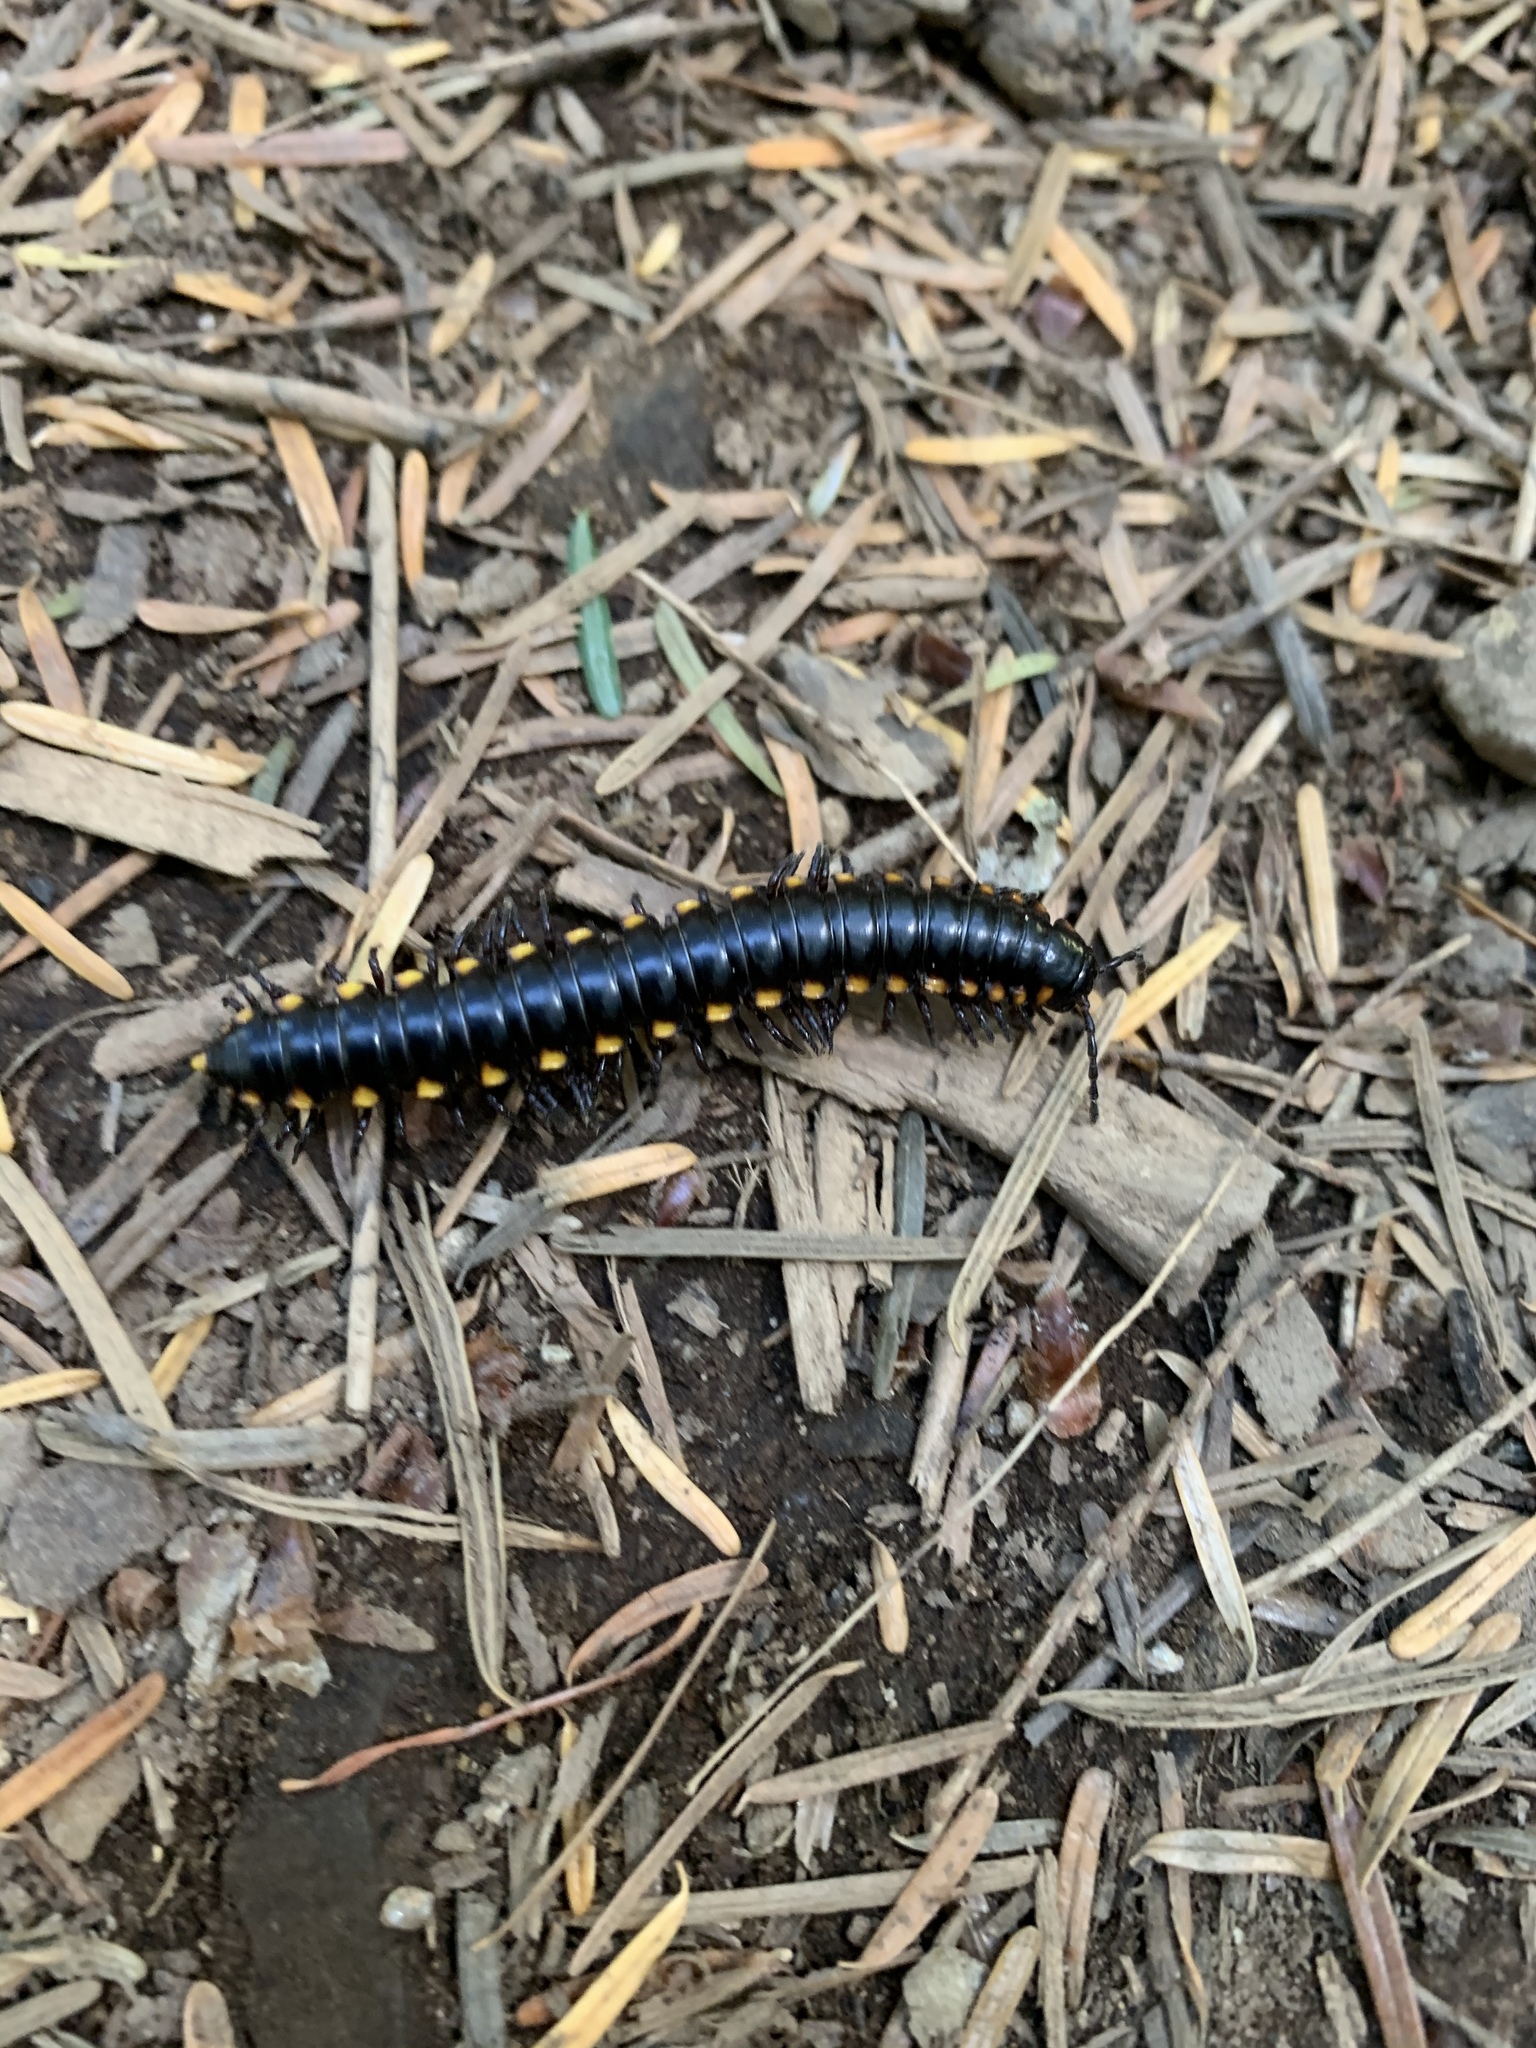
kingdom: Animalia
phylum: Arthropoda
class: Diplopoda
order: Polydesmida
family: Xystodesmidae
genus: Harpaphe
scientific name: Harpaphe haydeniana
